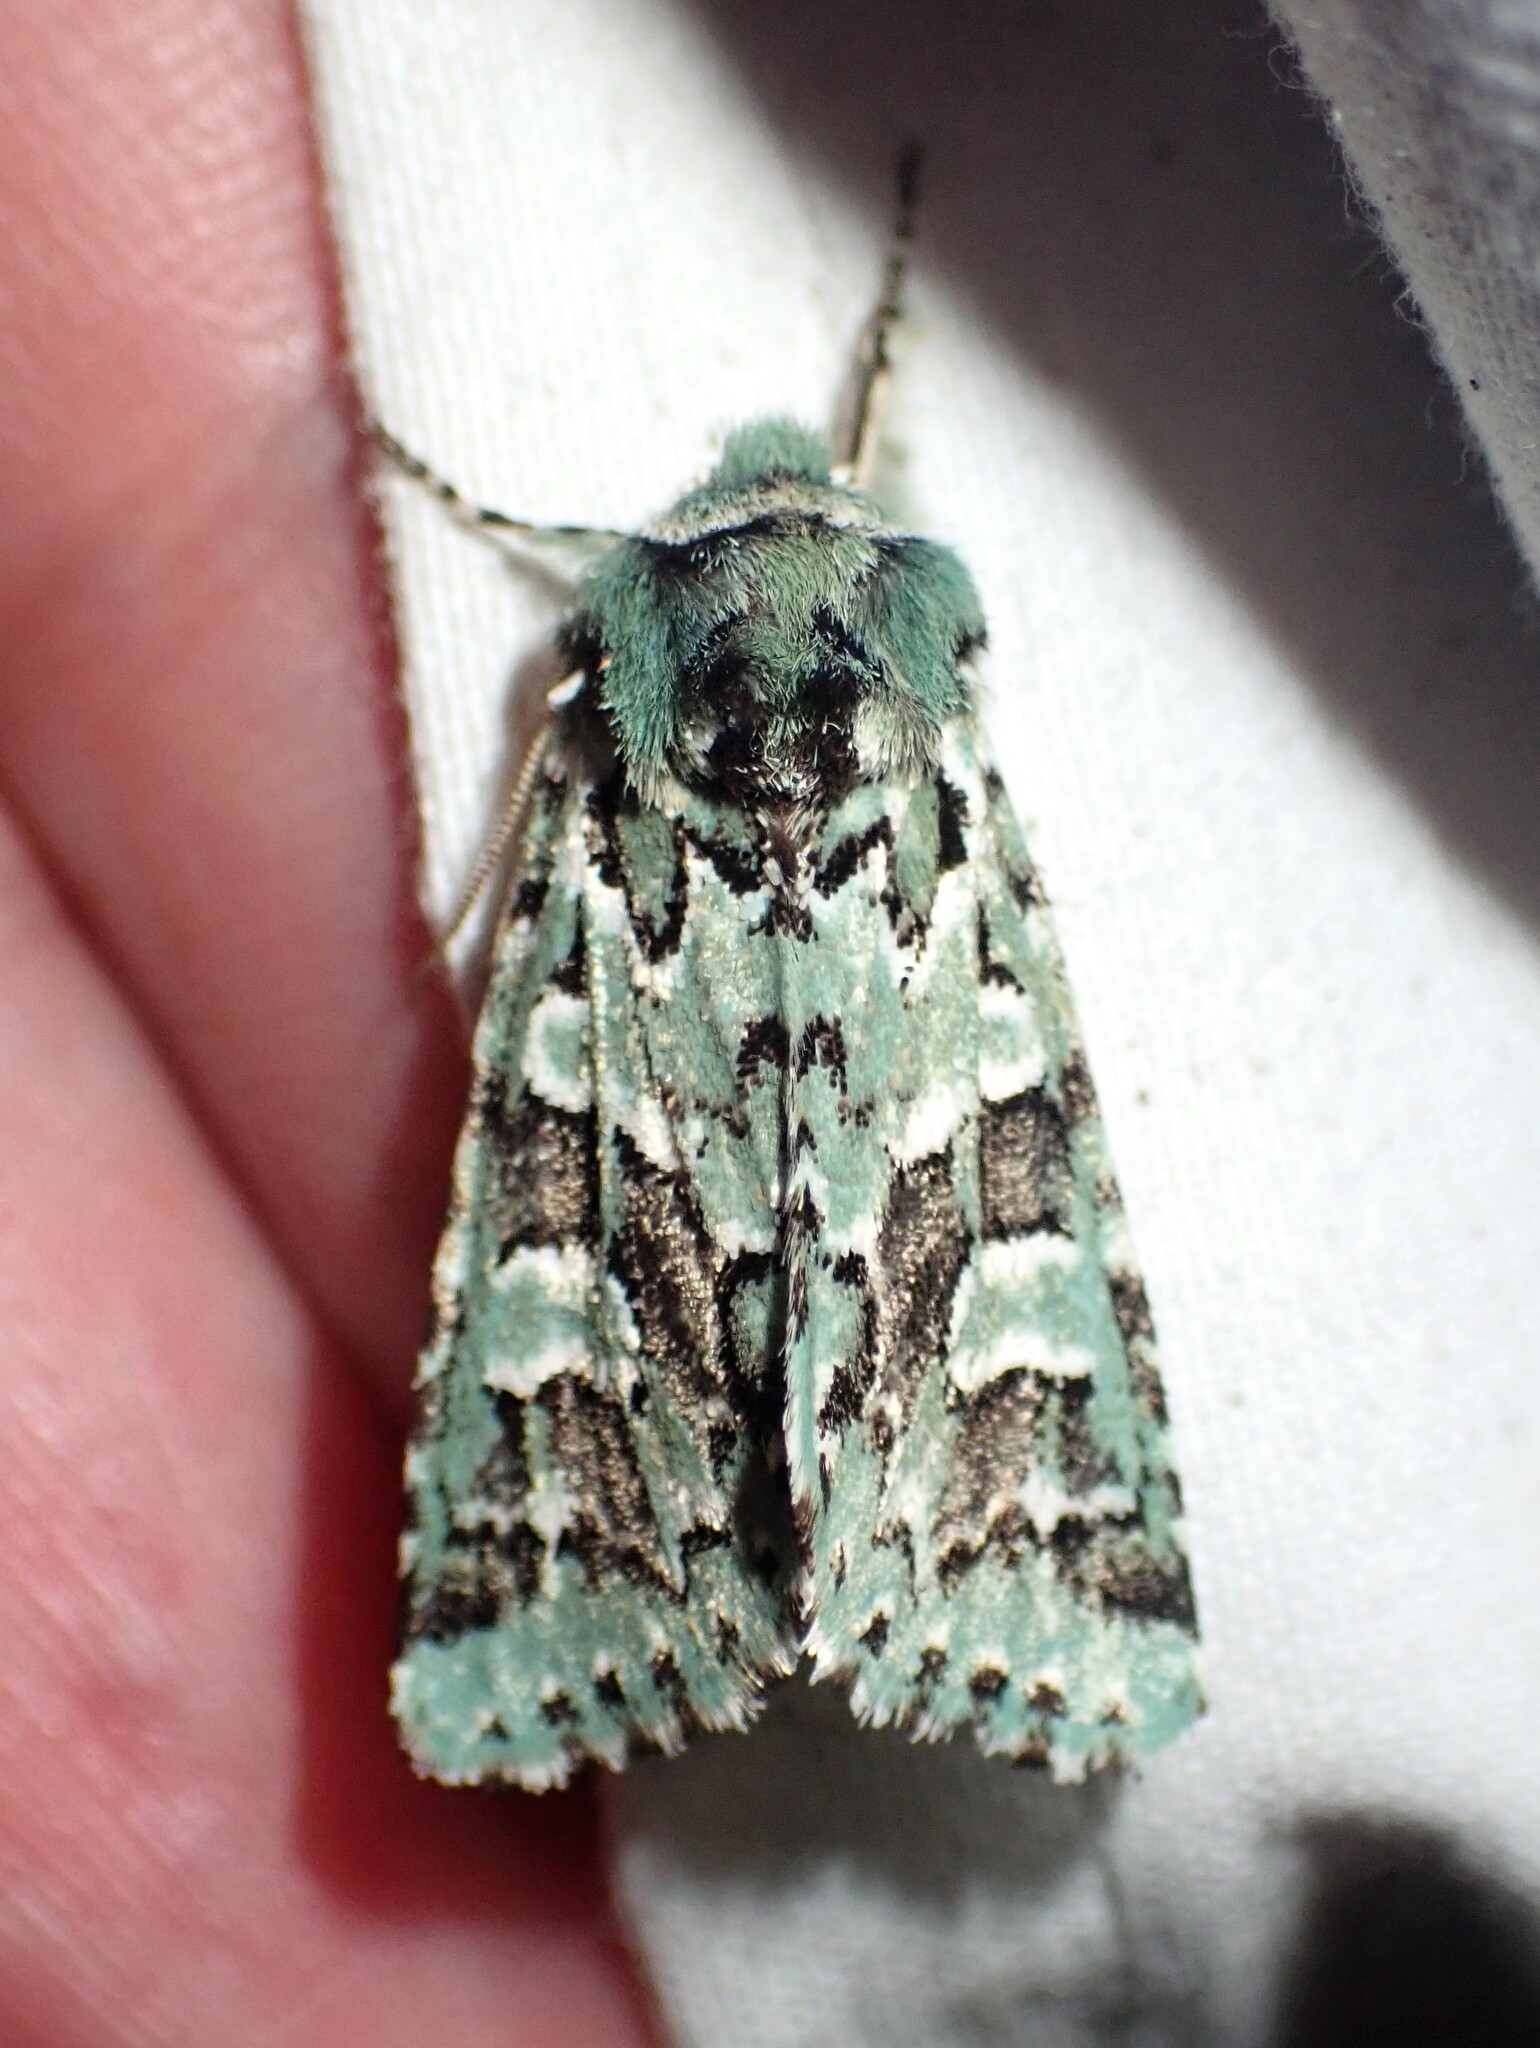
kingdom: Animalia
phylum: Arthropoda
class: Insecta
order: Lepidoptera
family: Noctuidae
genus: Feralia
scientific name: Feralia comstocki
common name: Comstock's sallow
